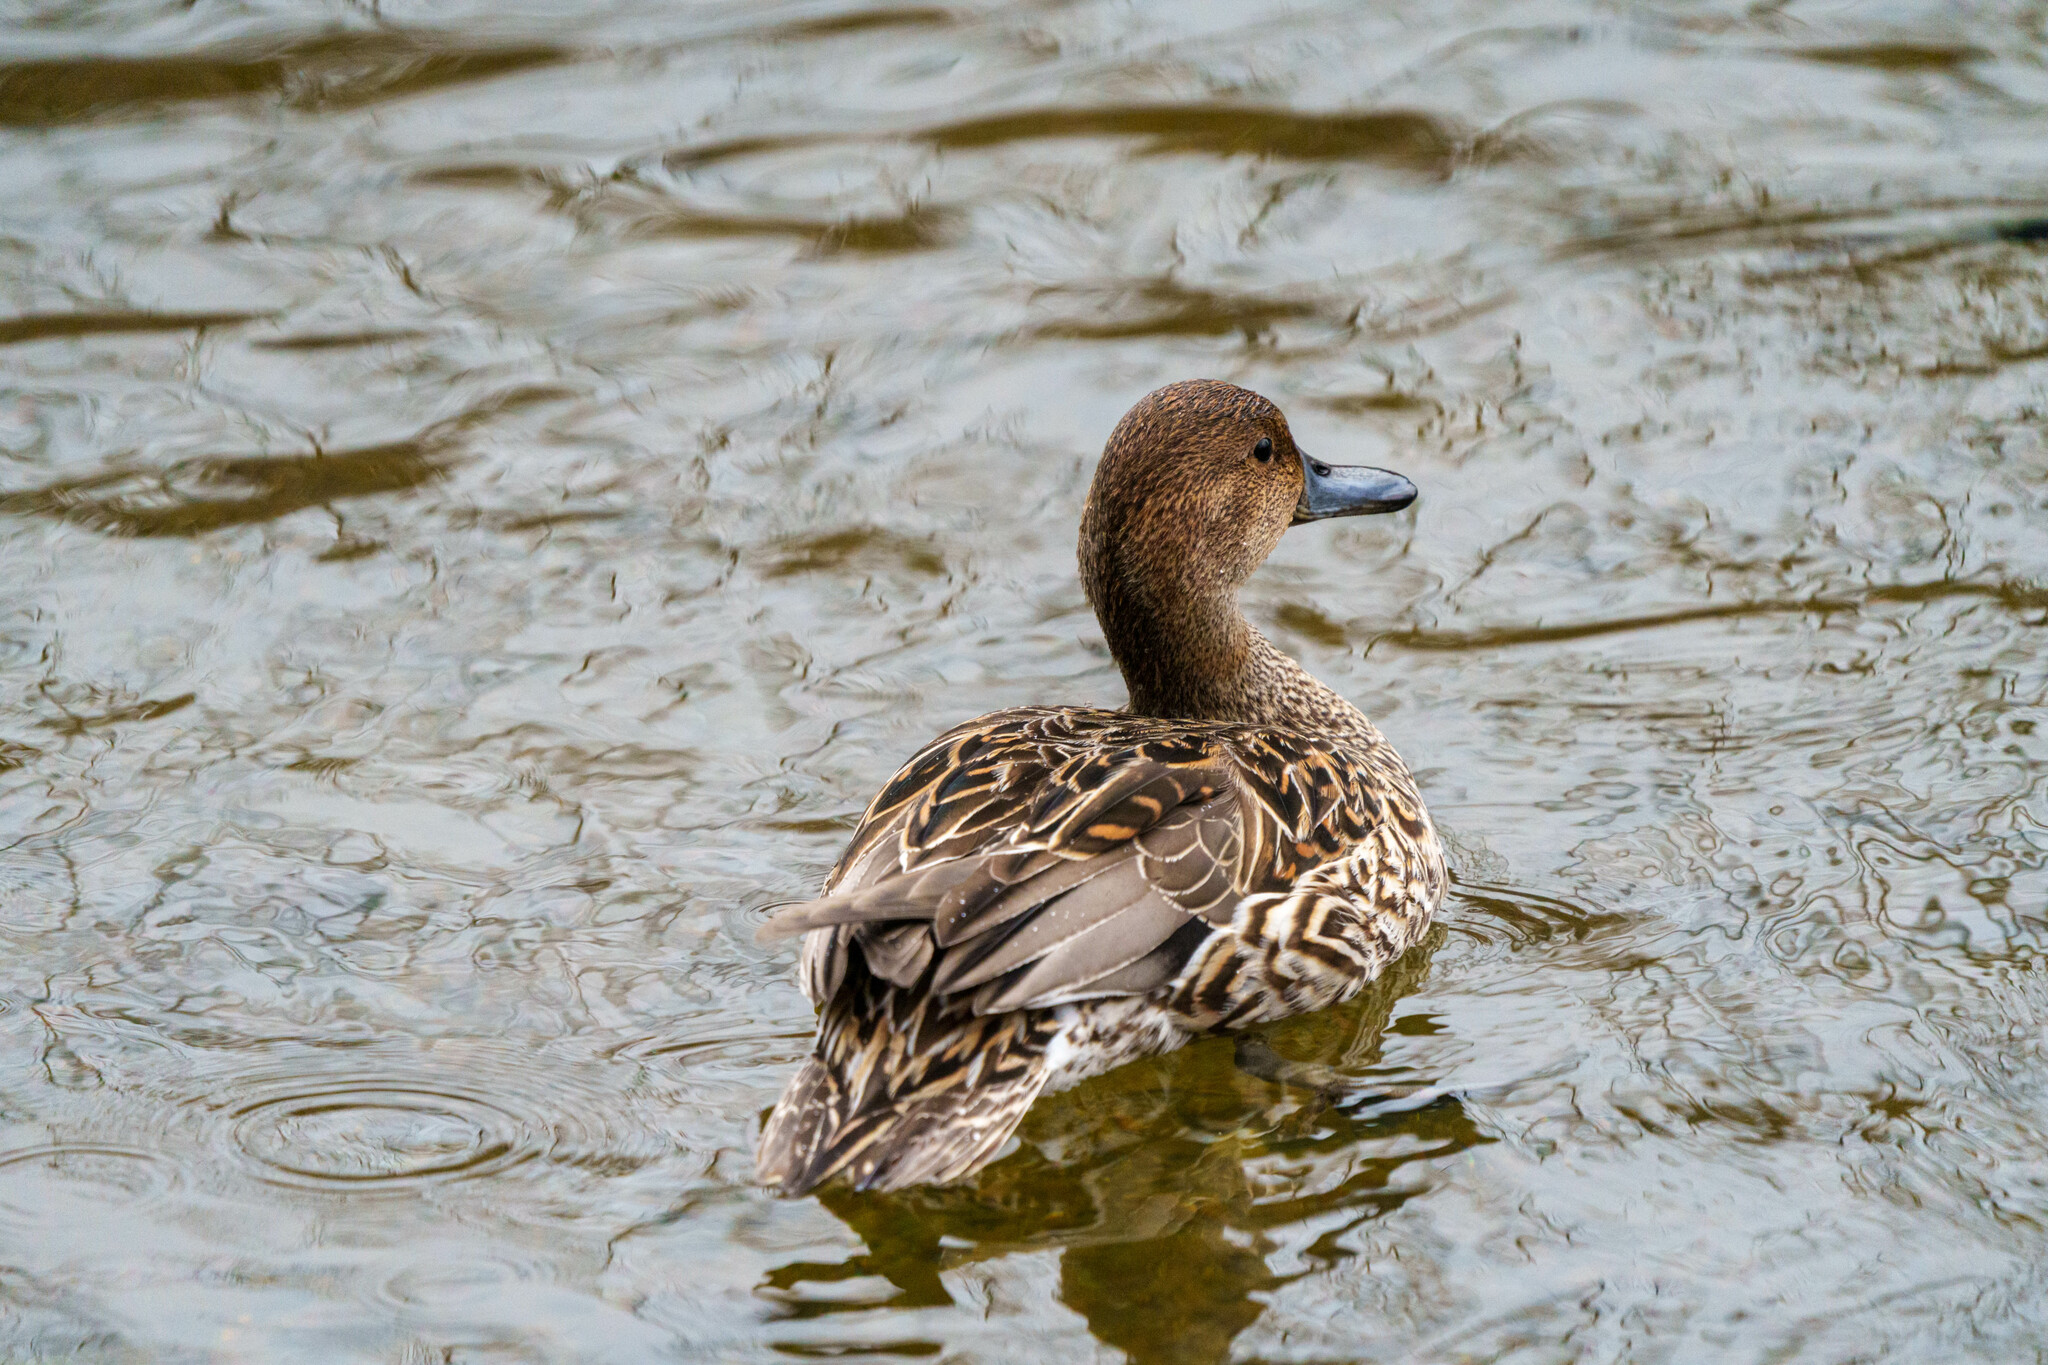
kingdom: Animalia
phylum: Chordata
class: Aves
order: Anseriformes
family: Anatidae
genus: Anas
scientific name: Anas acuta
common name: Northern pintail
